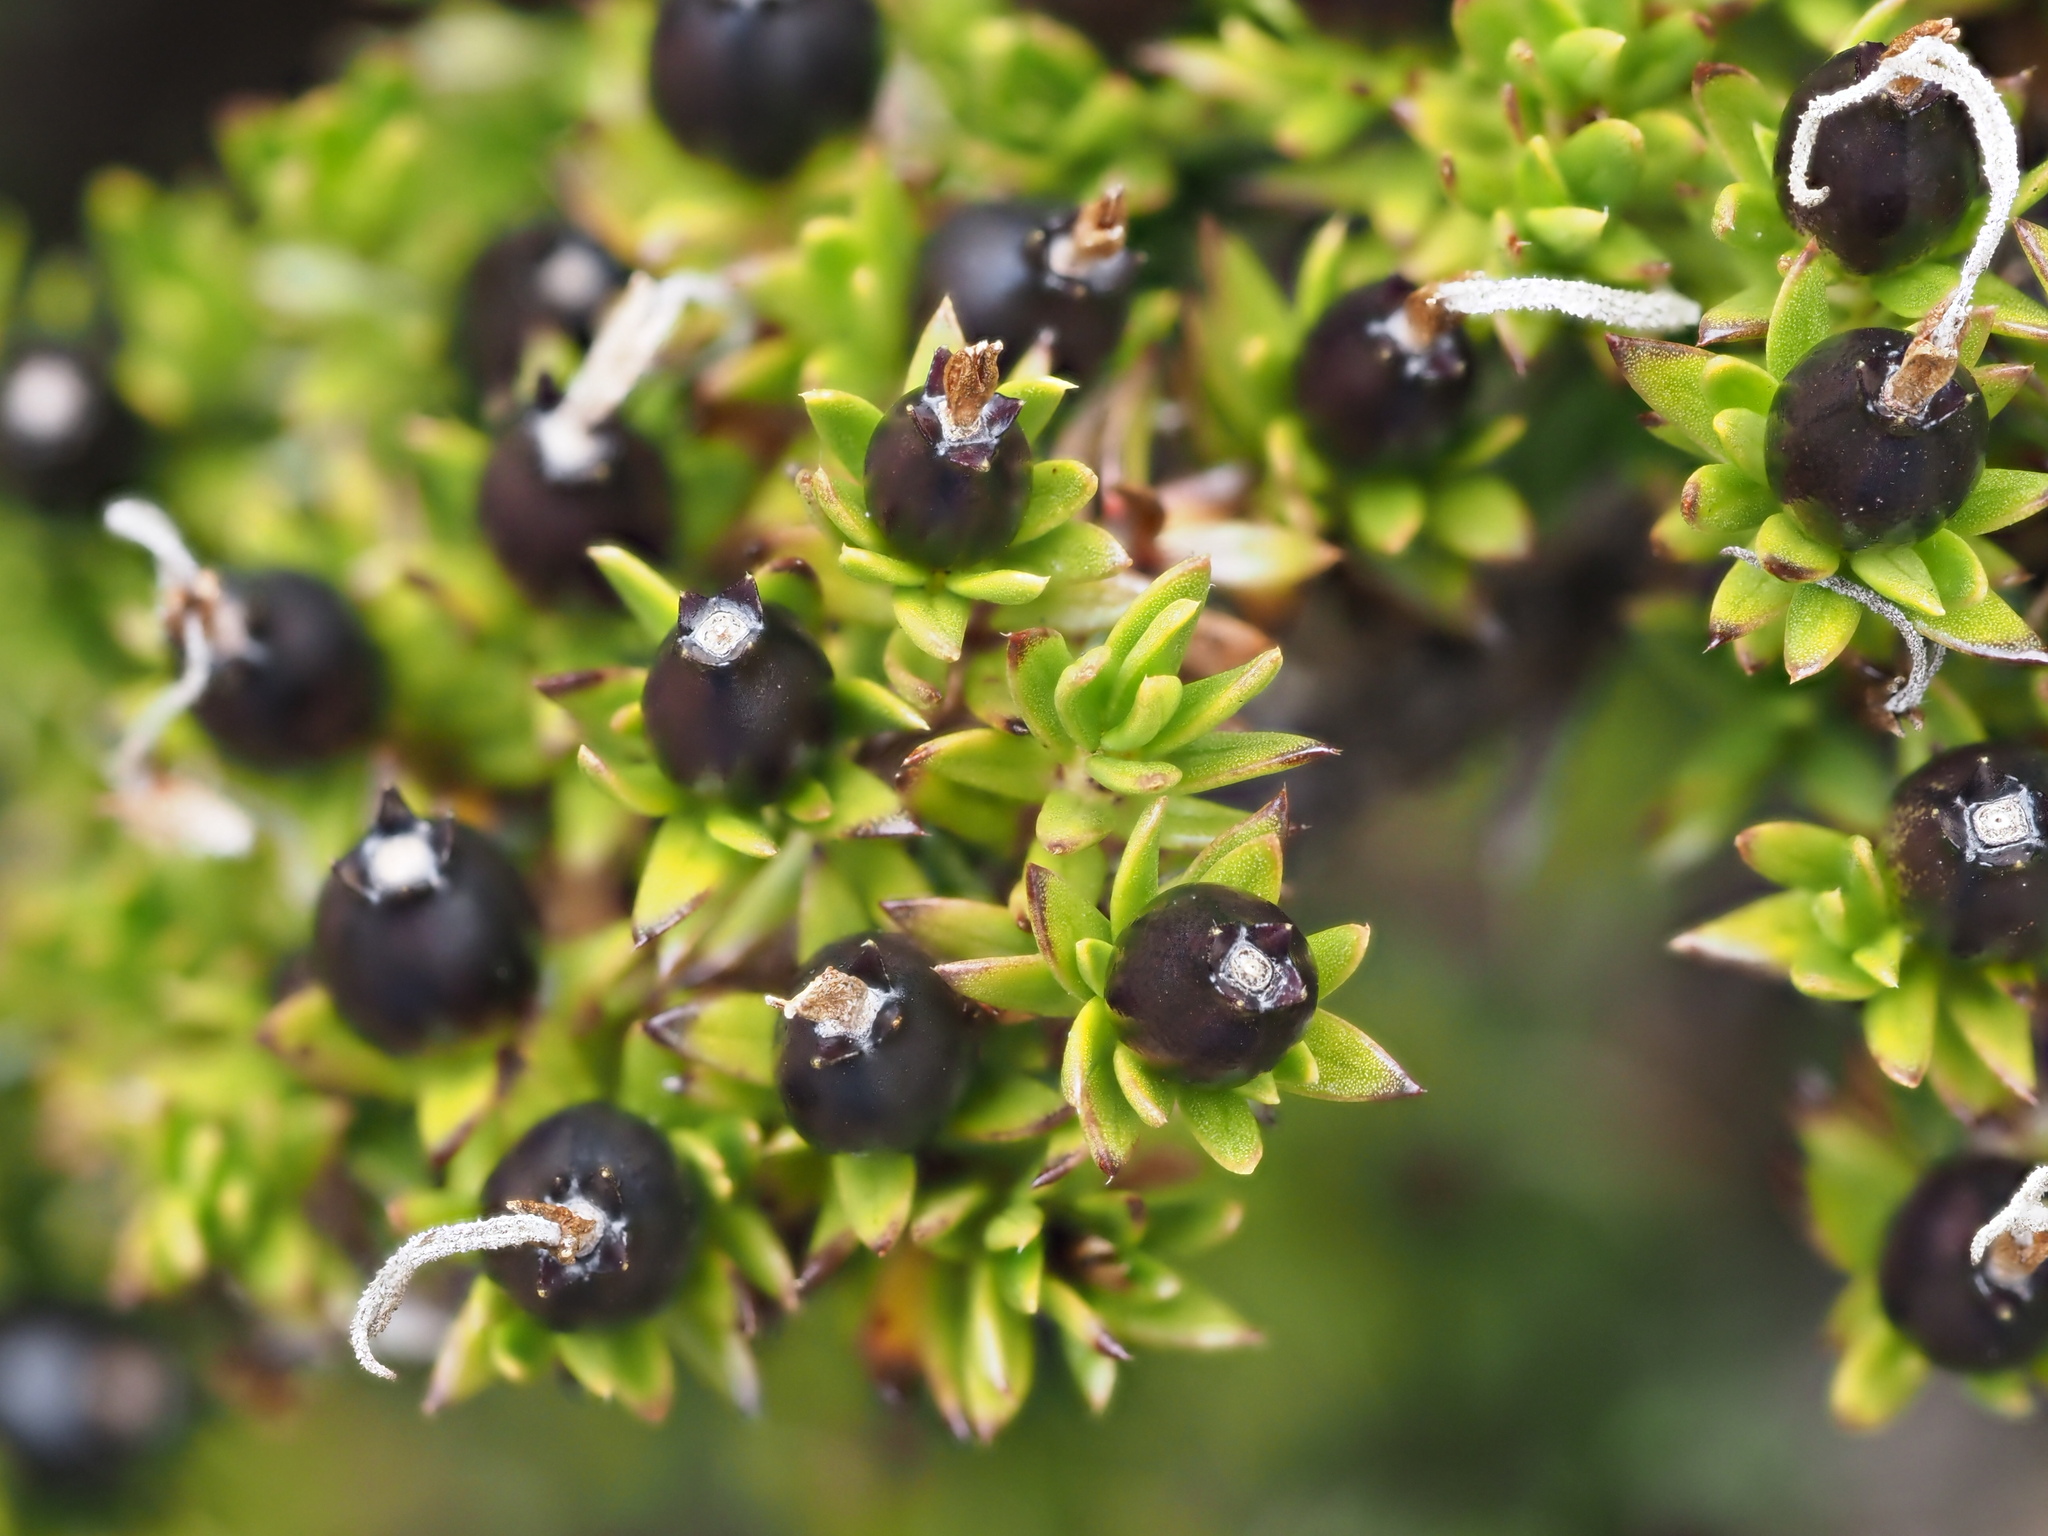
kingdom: Plantae
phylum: Tracheophyta
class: Magnoliopsida
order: Gentianales
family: Rubiaceae
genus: Coprosma
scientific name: Coprosma ernodeoides
